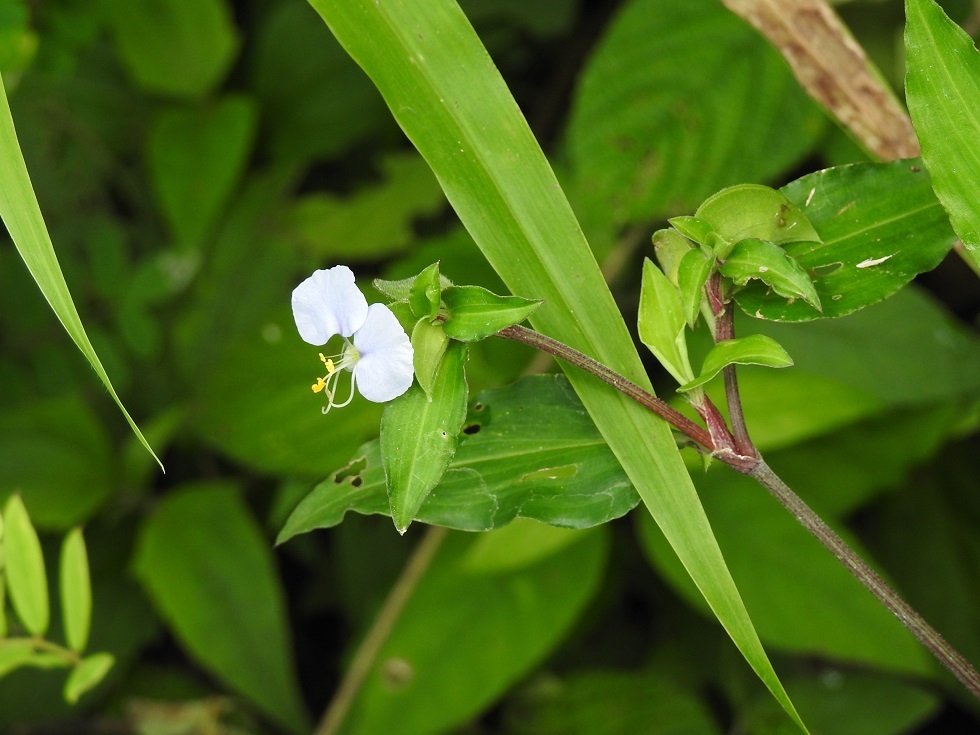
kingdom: Plantae
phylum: Tracheophyta
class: Liliopsida
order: Commelinales
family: Commelinaceae
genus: Commelina
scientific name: Commelina erecta
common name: Blousel blommetjie
